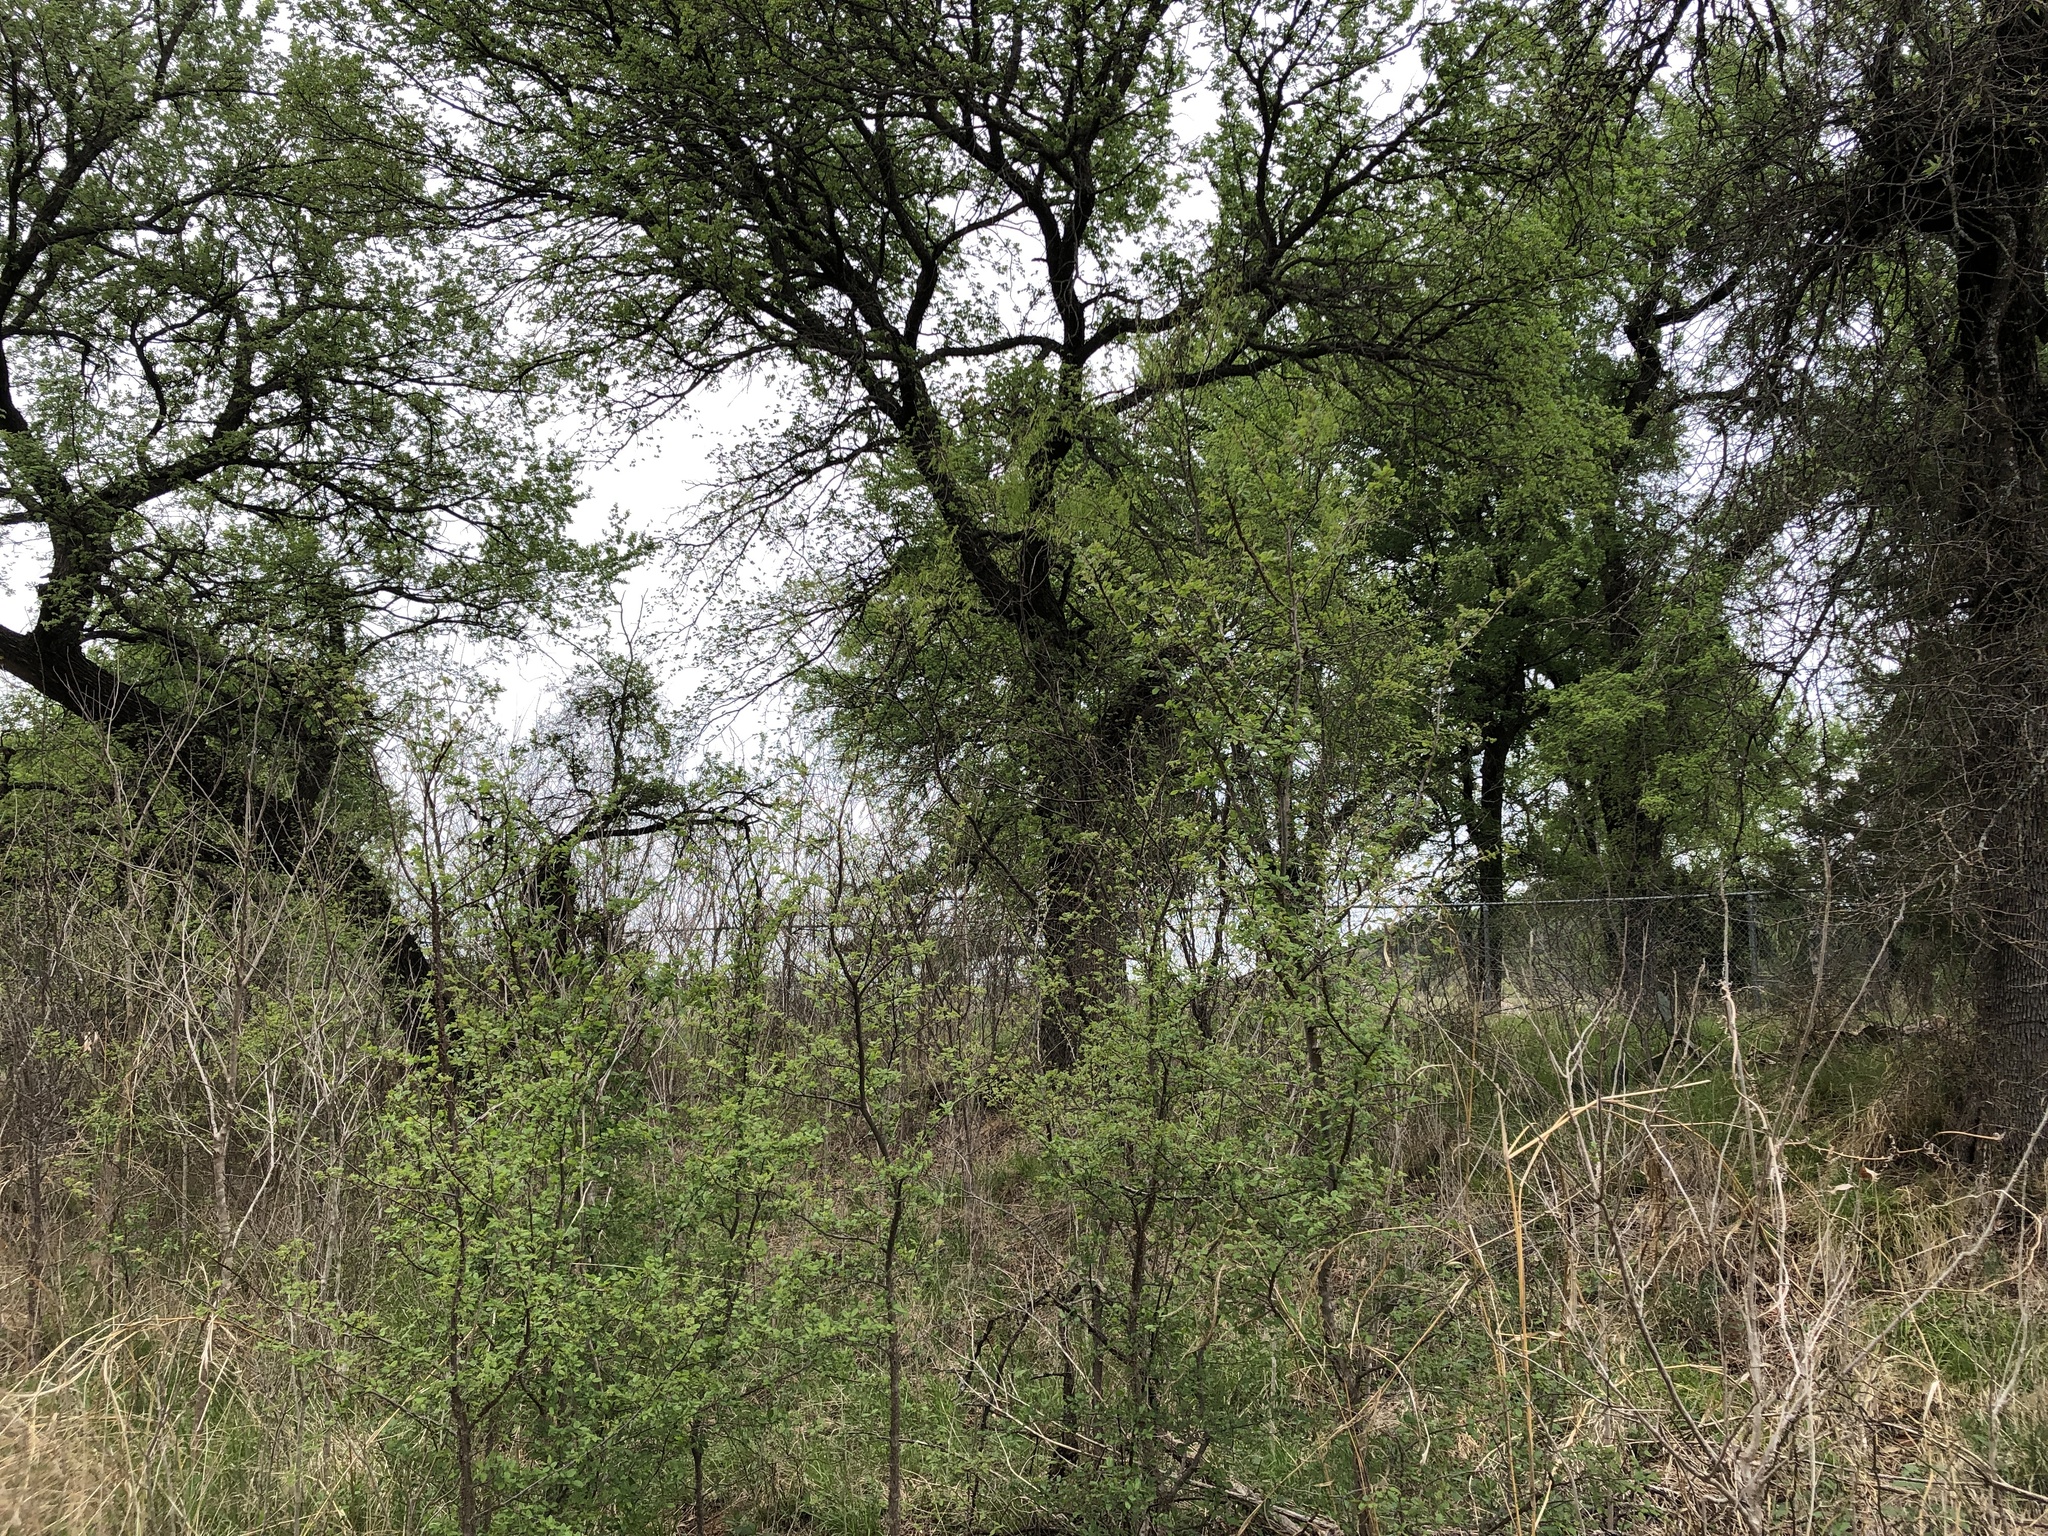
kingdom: Animalia
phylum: Chordata
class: Aves
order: Passeriformes
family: Passerellidae
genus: Zonotrichia
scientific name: Zonotrichia albicollis
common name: White-throated sparrow
